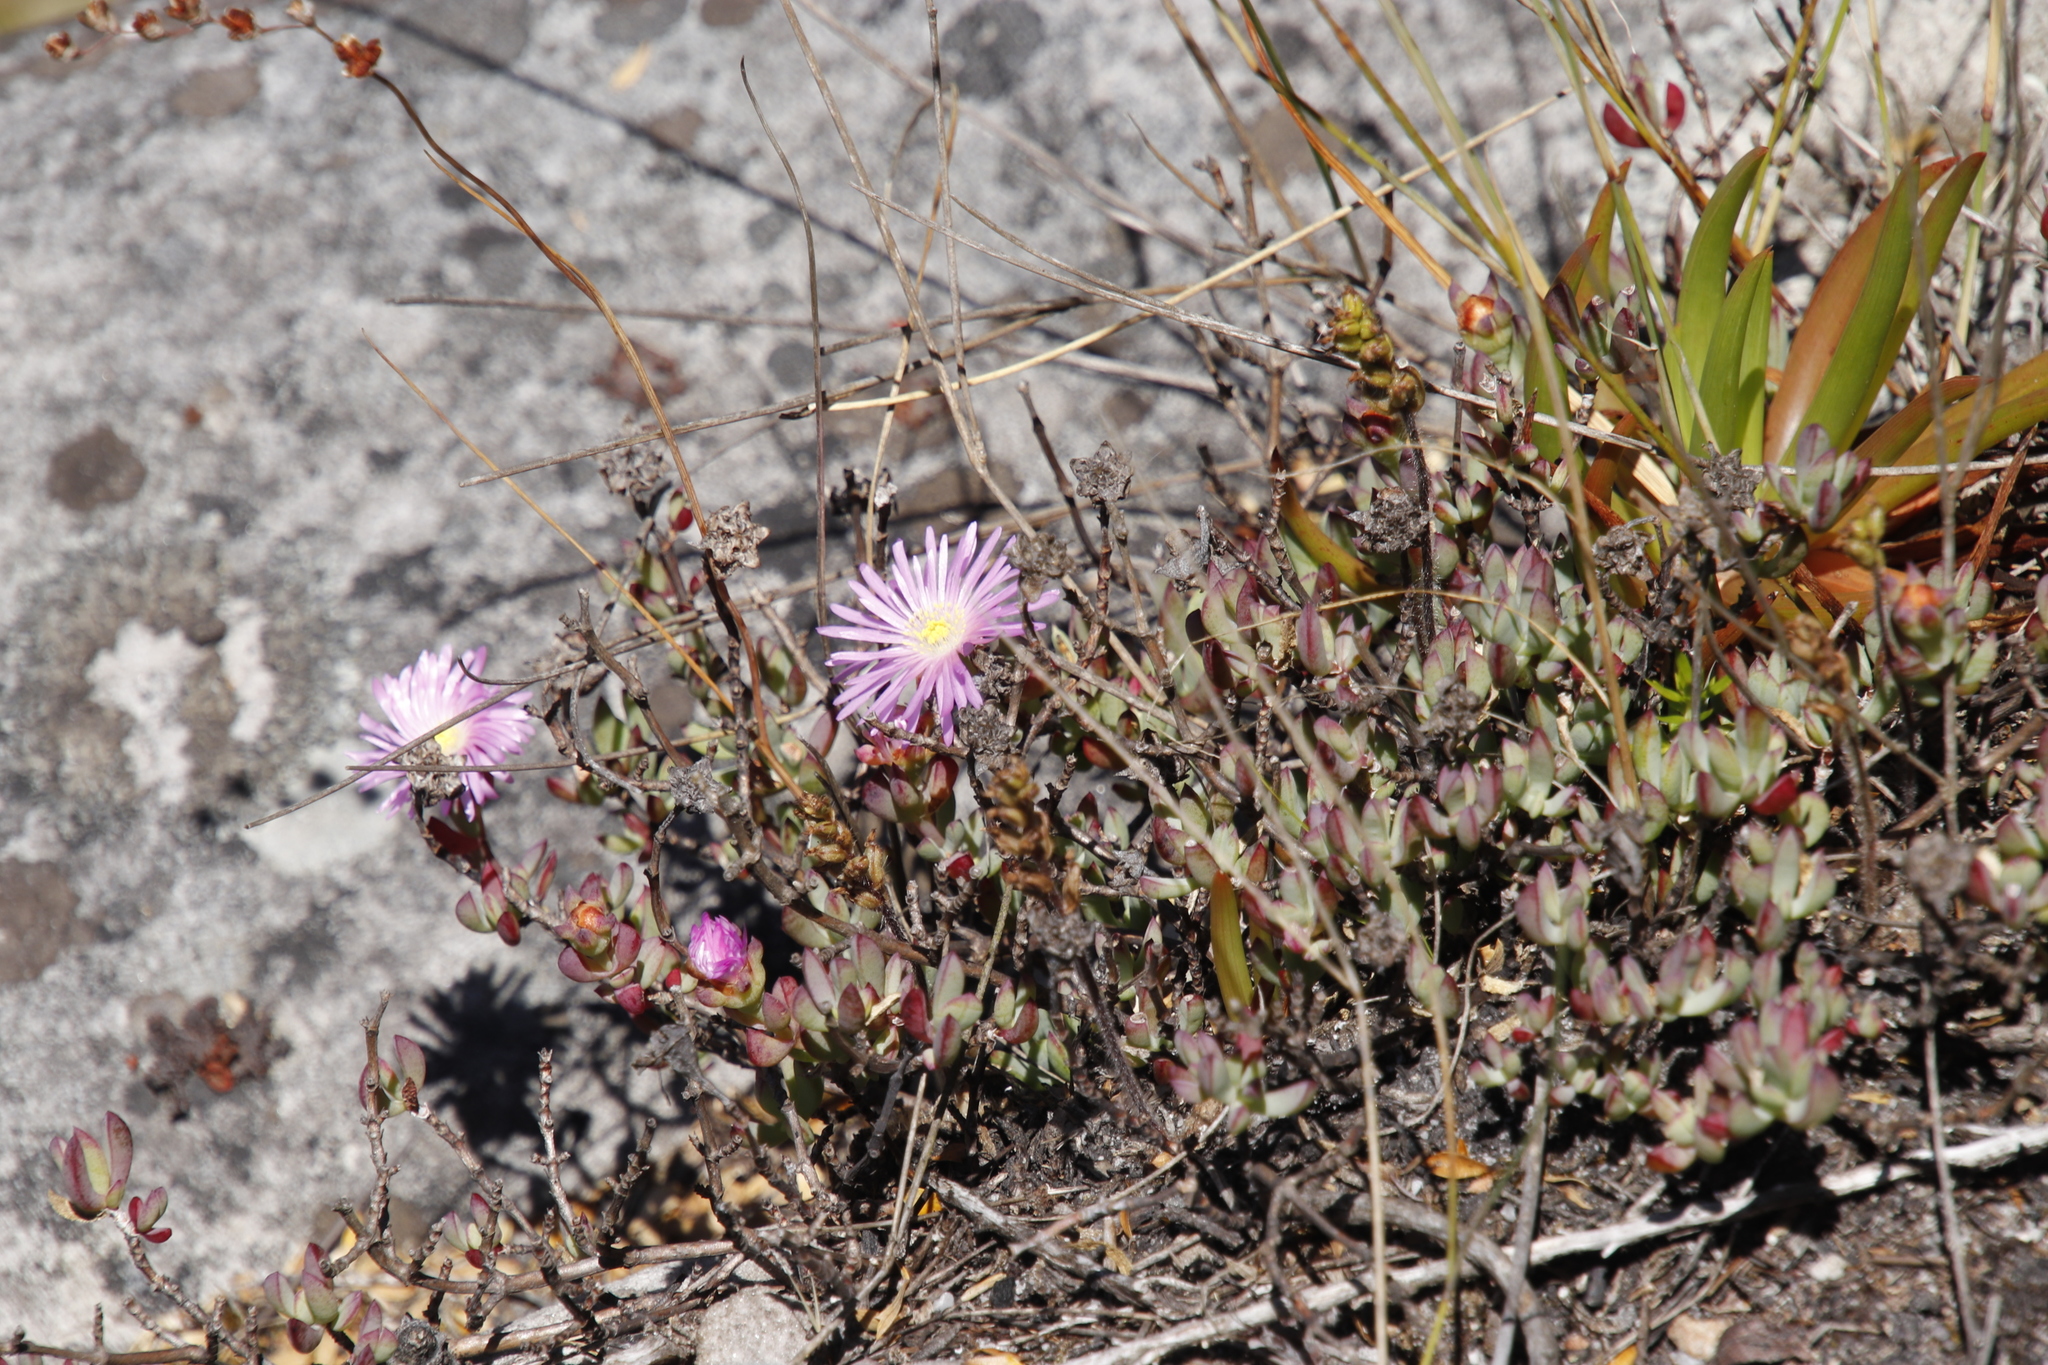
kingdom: Plantae
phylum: Tracheophyta
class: Magnoliopsida
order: Caryophyllales
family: Aizoaceae
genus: Oscularia
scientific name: Oscularia falciformis
